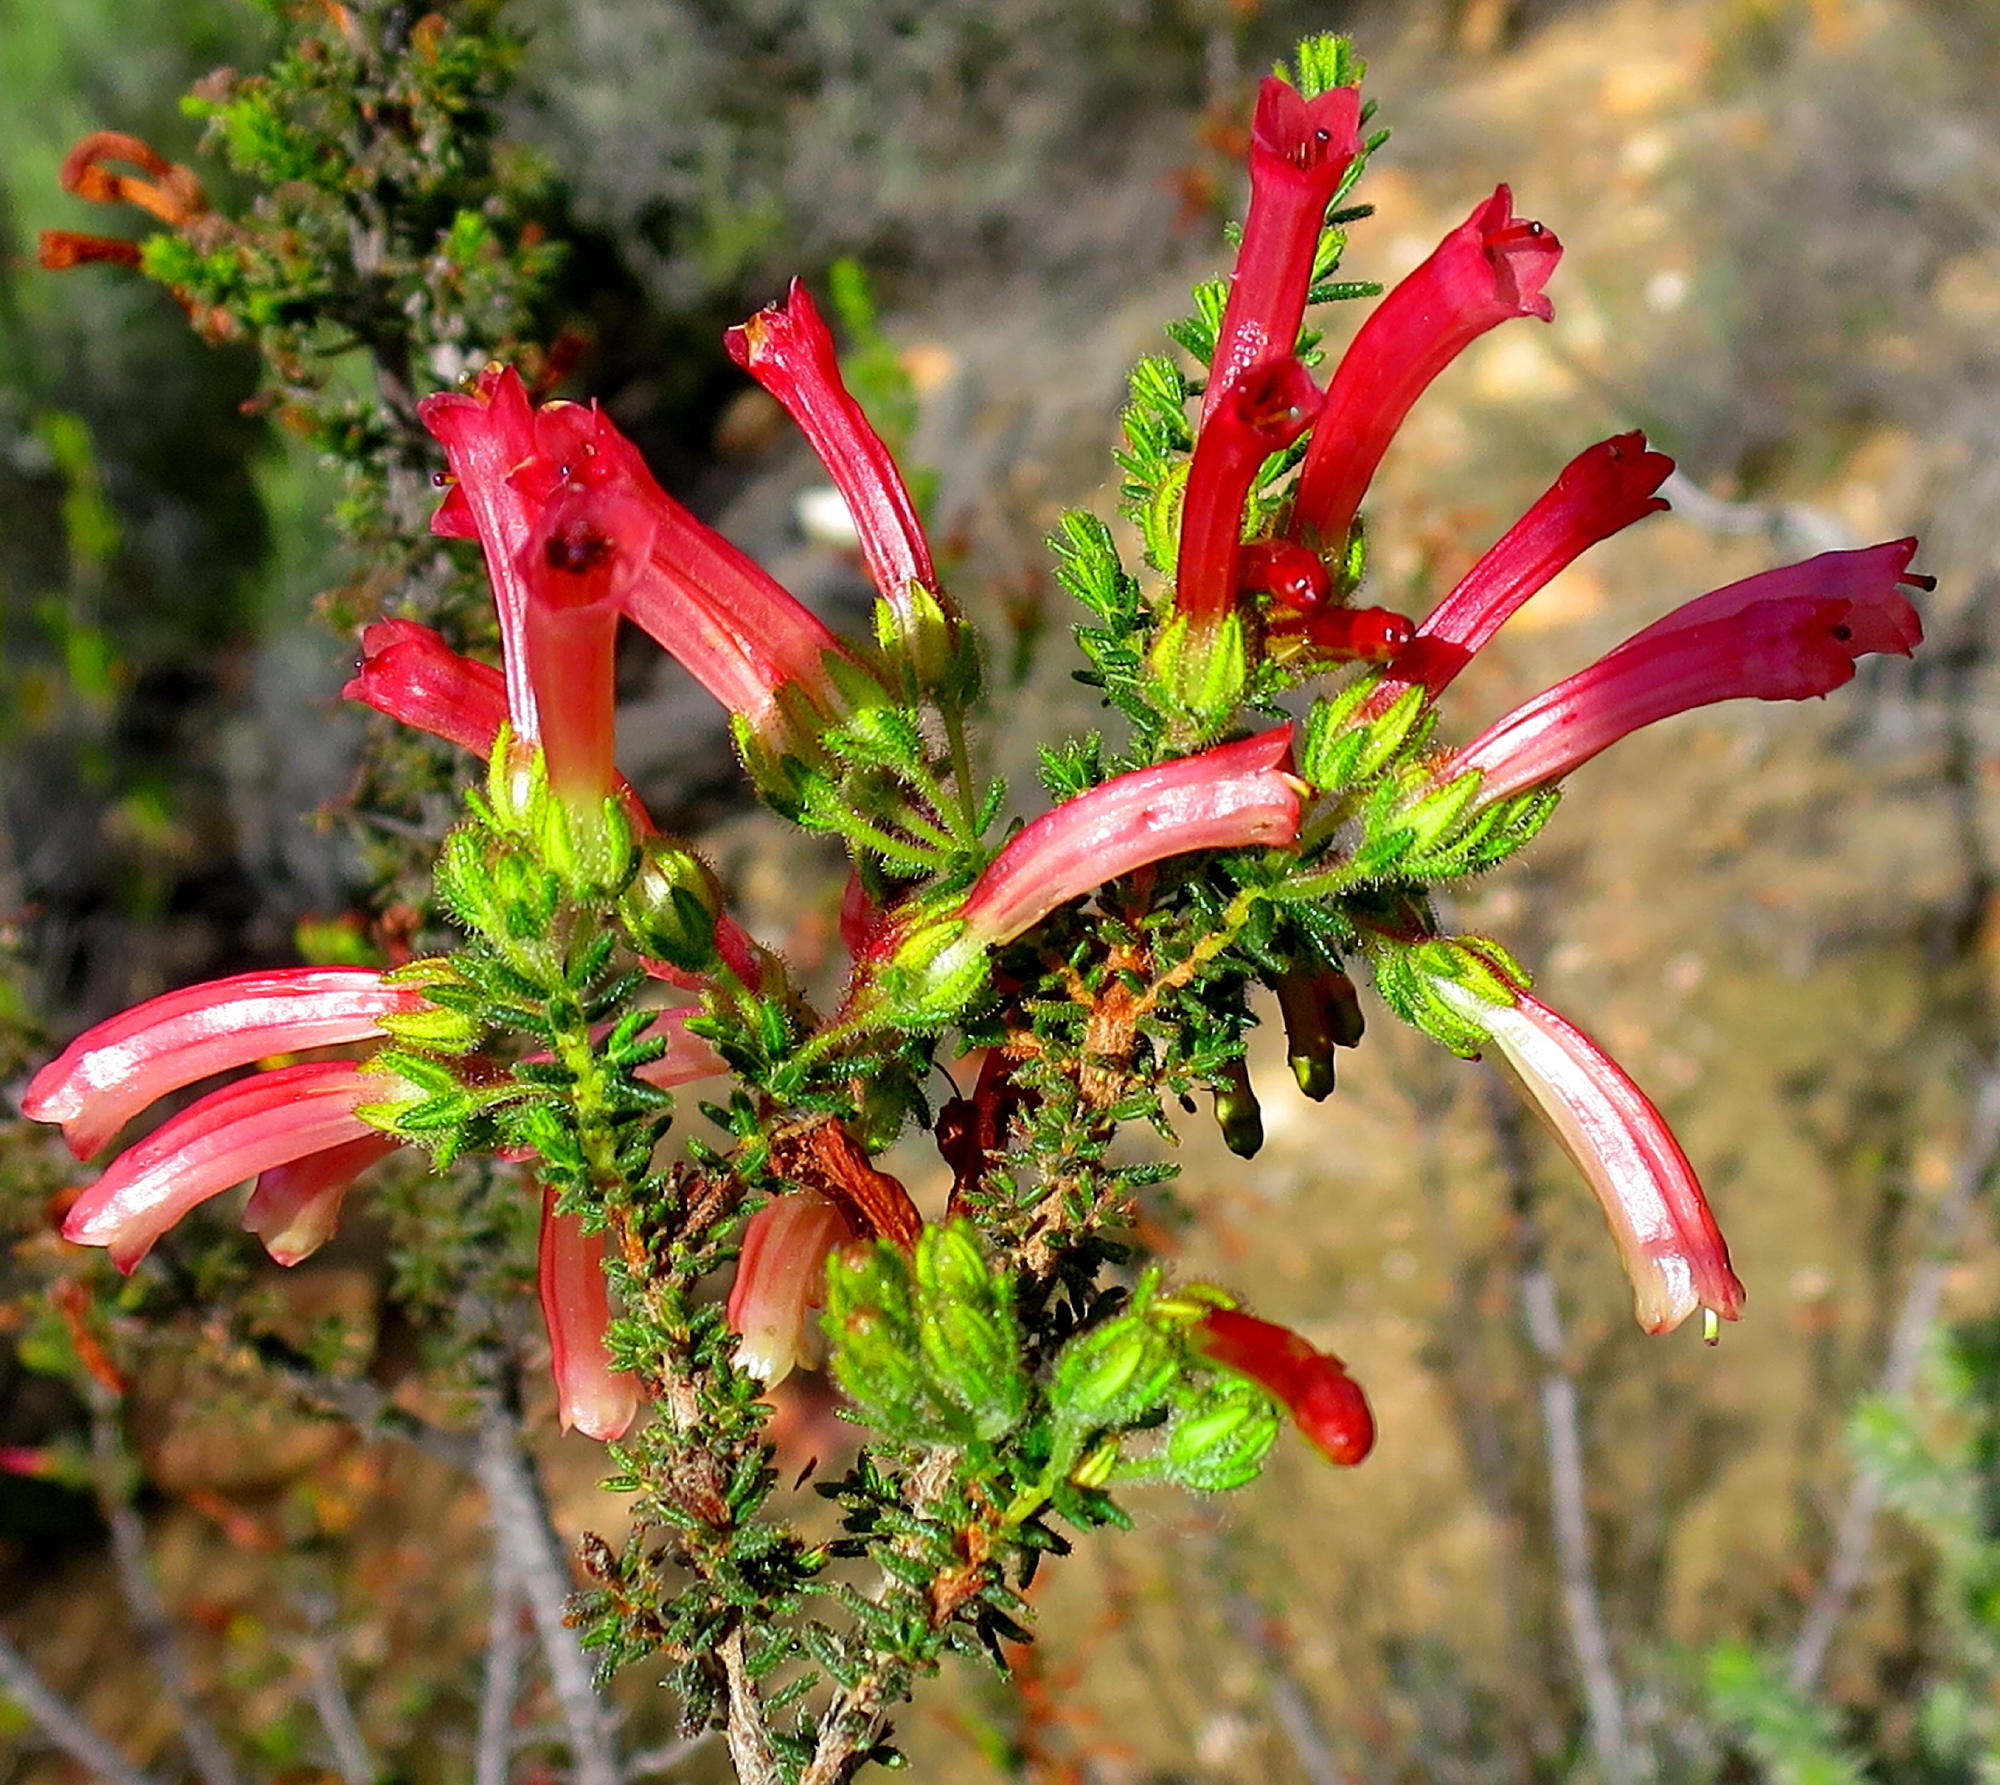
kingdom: Plantae
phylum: Tracheophyta
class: Magnoliopsida
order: Ericales
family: Ericaceae
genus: Erica
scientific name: Erica glandulosa
